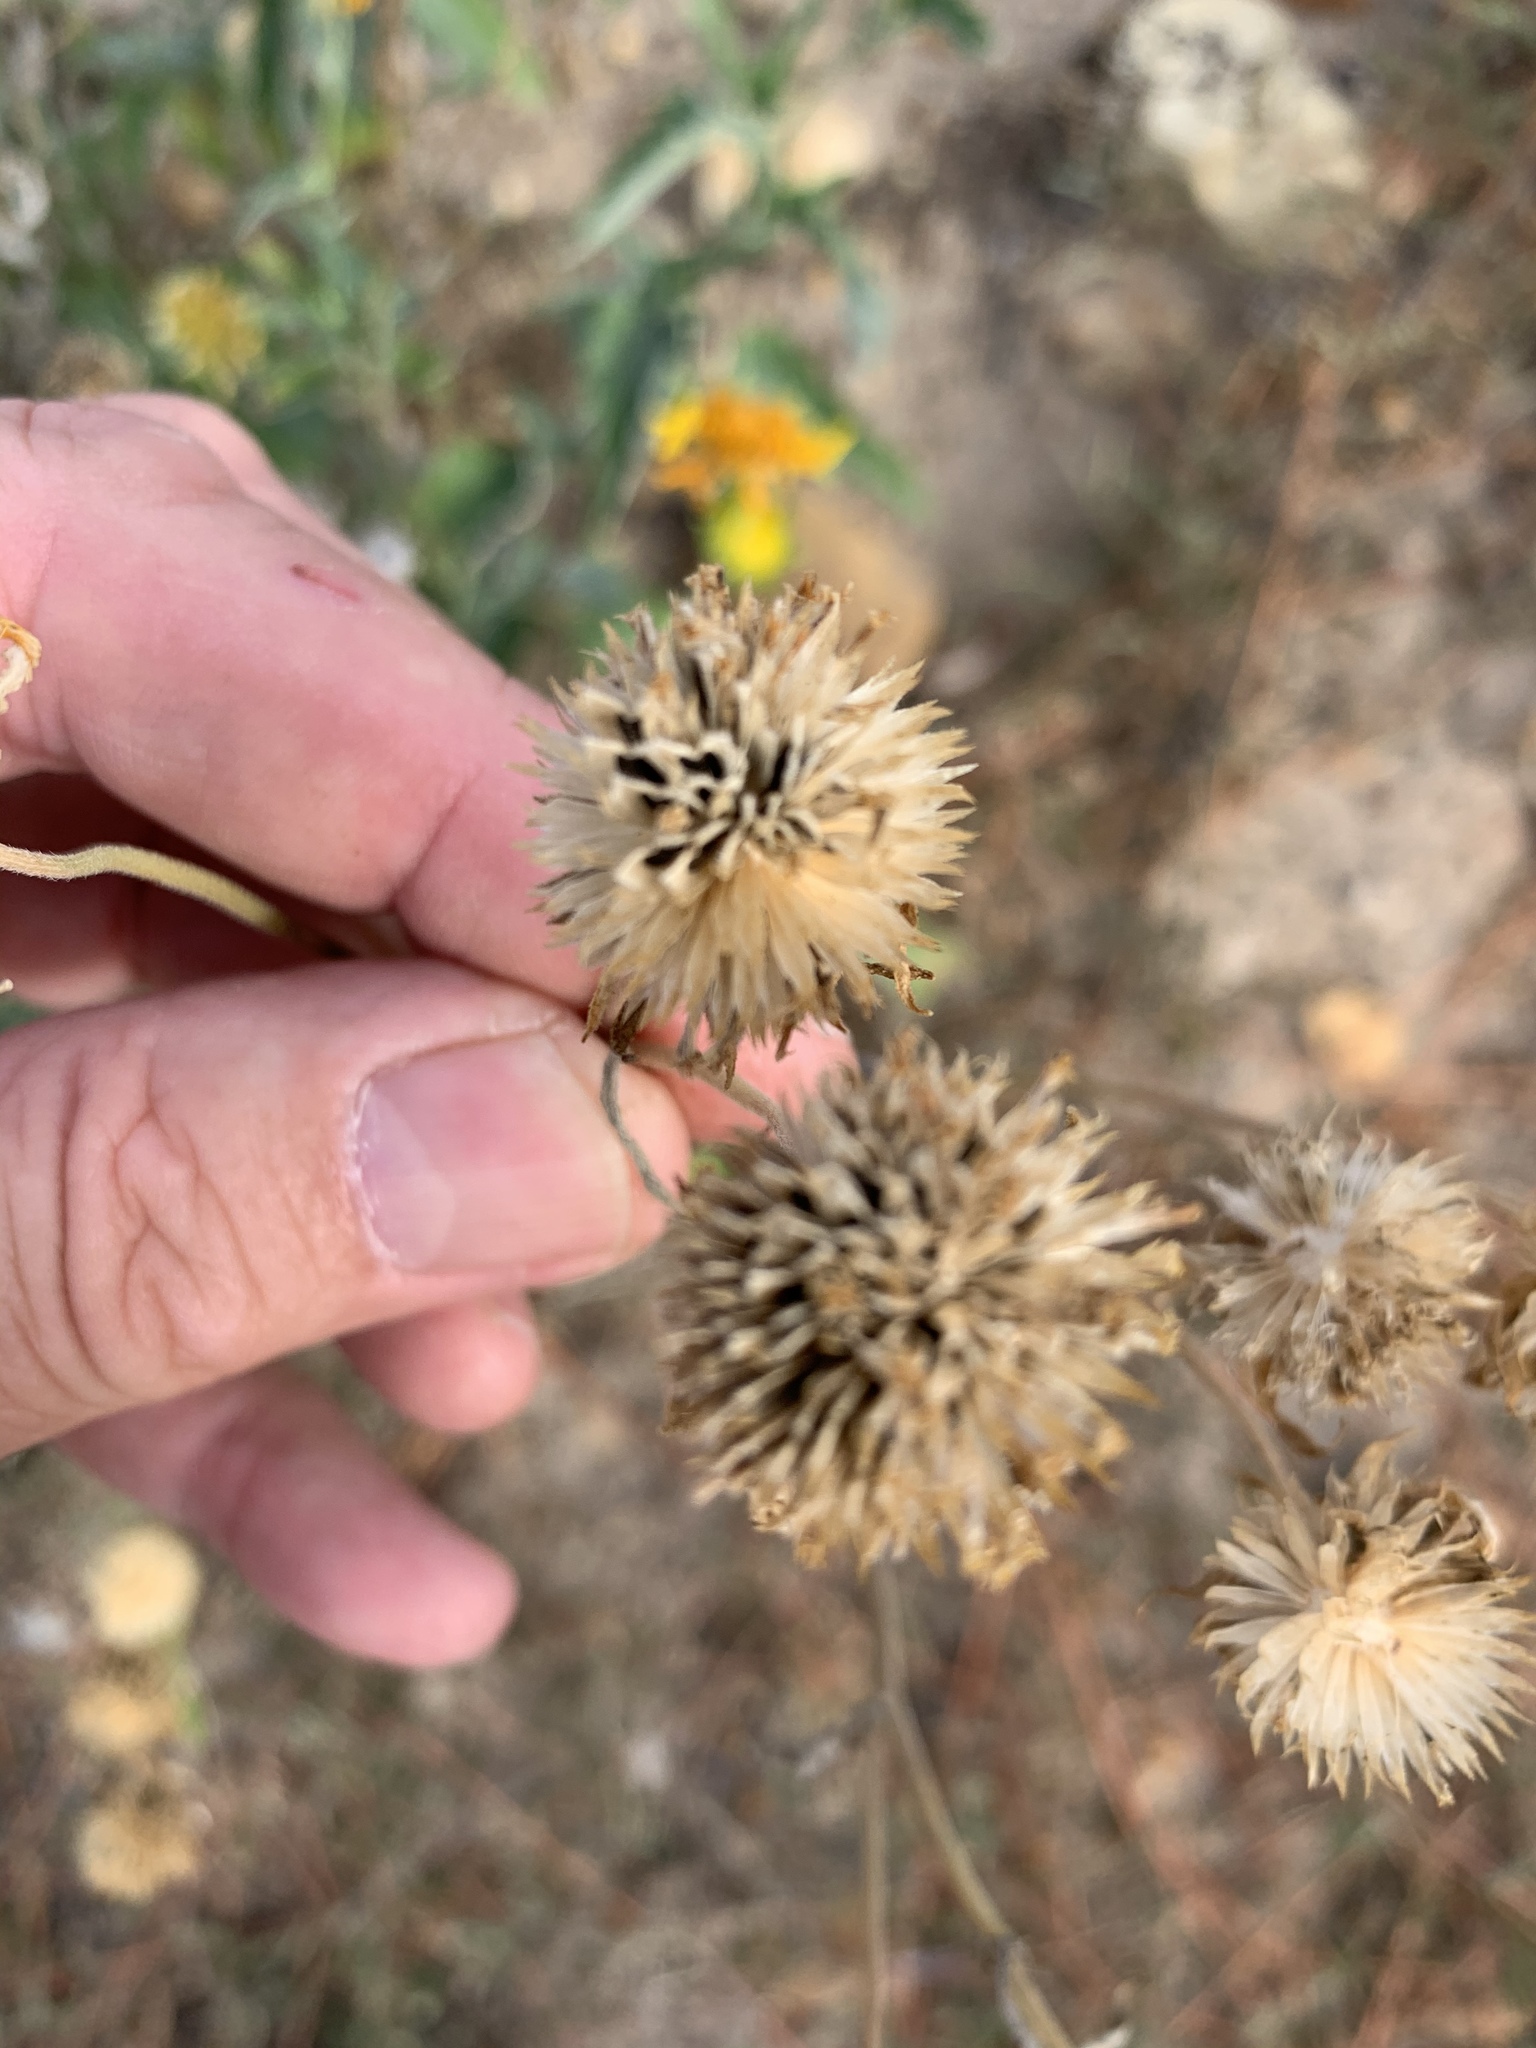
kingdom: Plantae
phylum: Tracheophyta
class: Magnoliopsida
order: Asterales
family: Asteraceae
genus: Verbesina
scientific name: Verbesina encelioides
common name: Golden crownbeard
